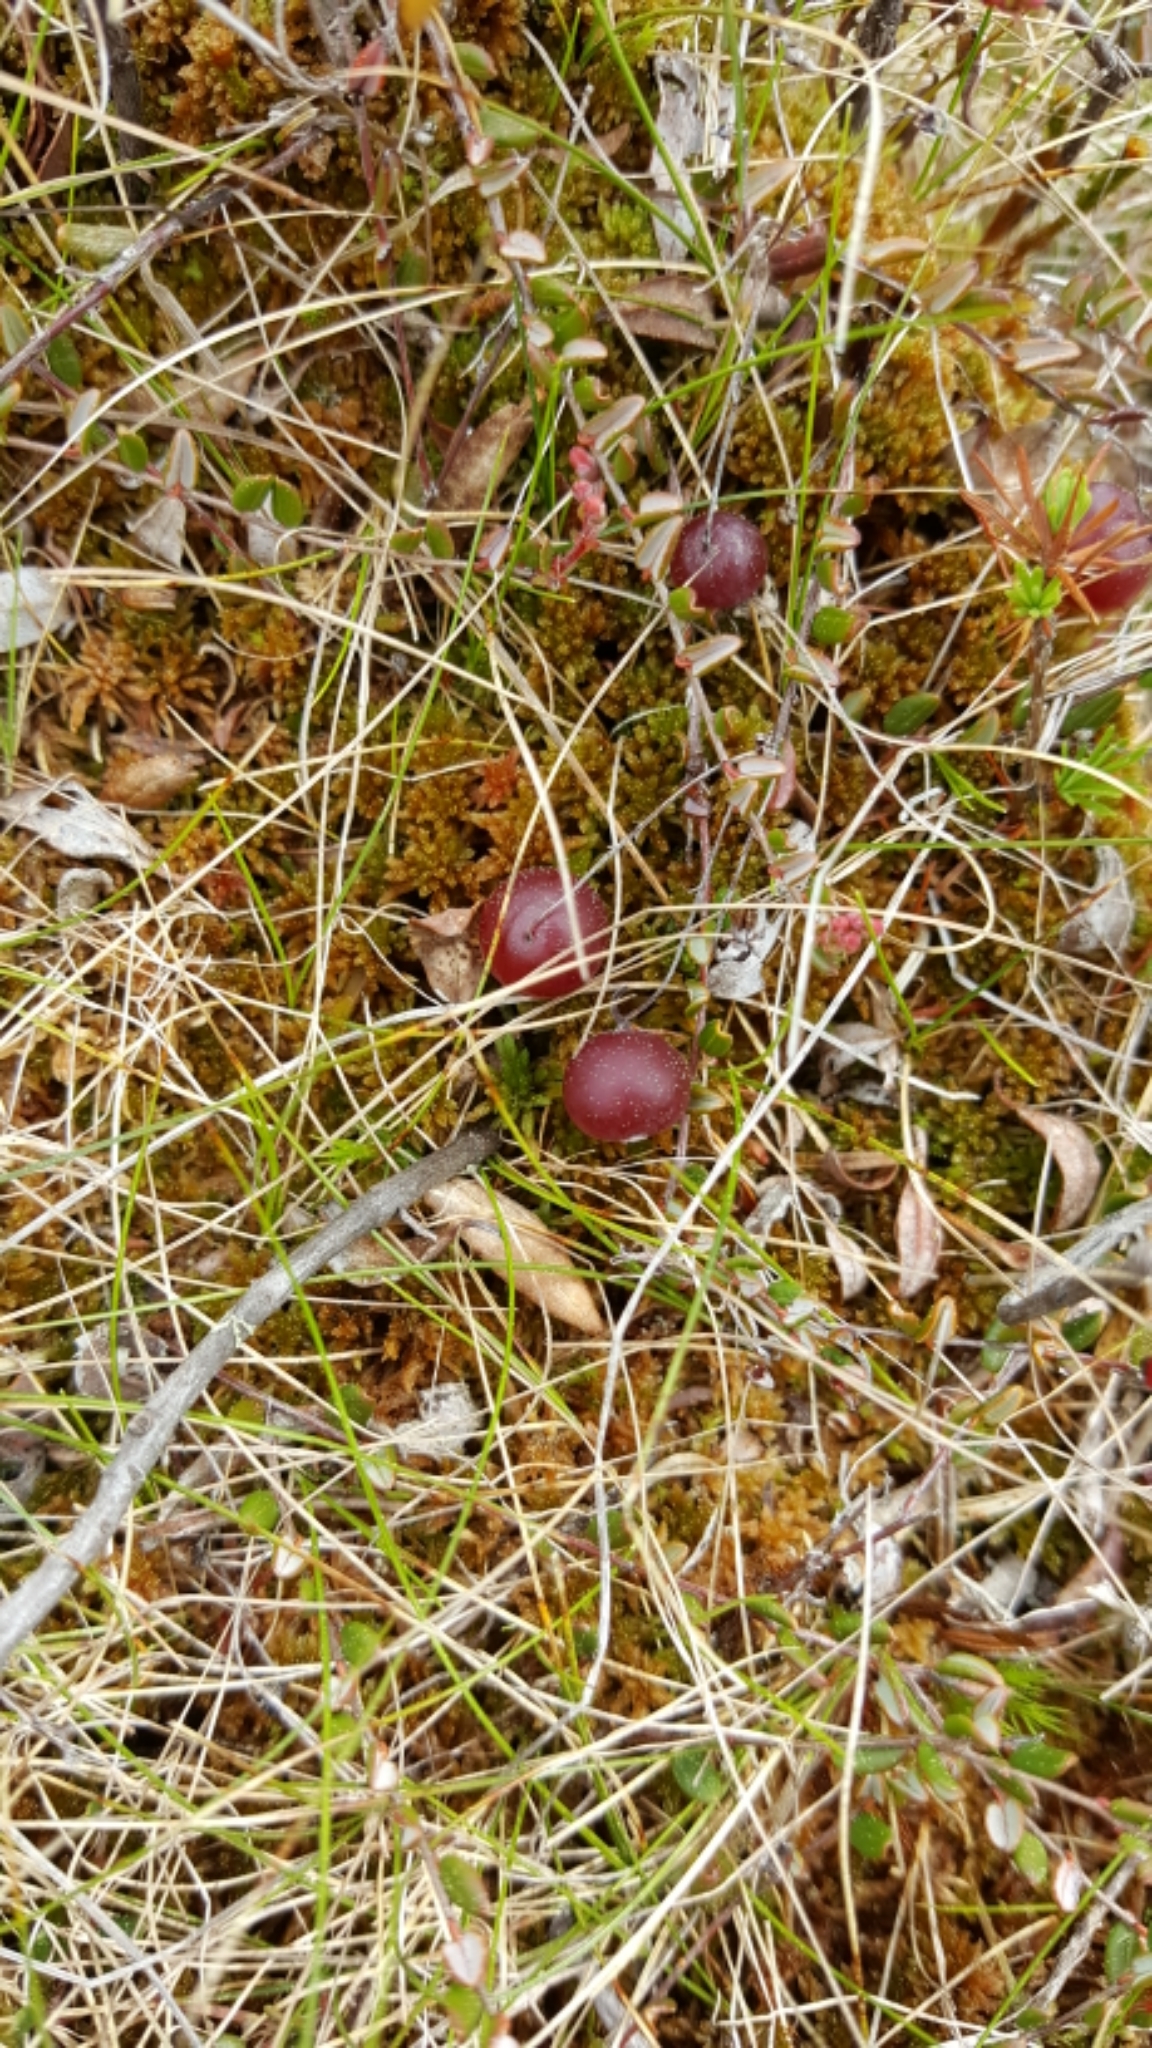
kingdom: Plantae
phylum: Tracheophyta
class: Magnoliopsida
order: Ericales
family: Ericaceae
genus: Vaccinium
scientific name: Vaccinium oxycoccos
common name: Cranberry
